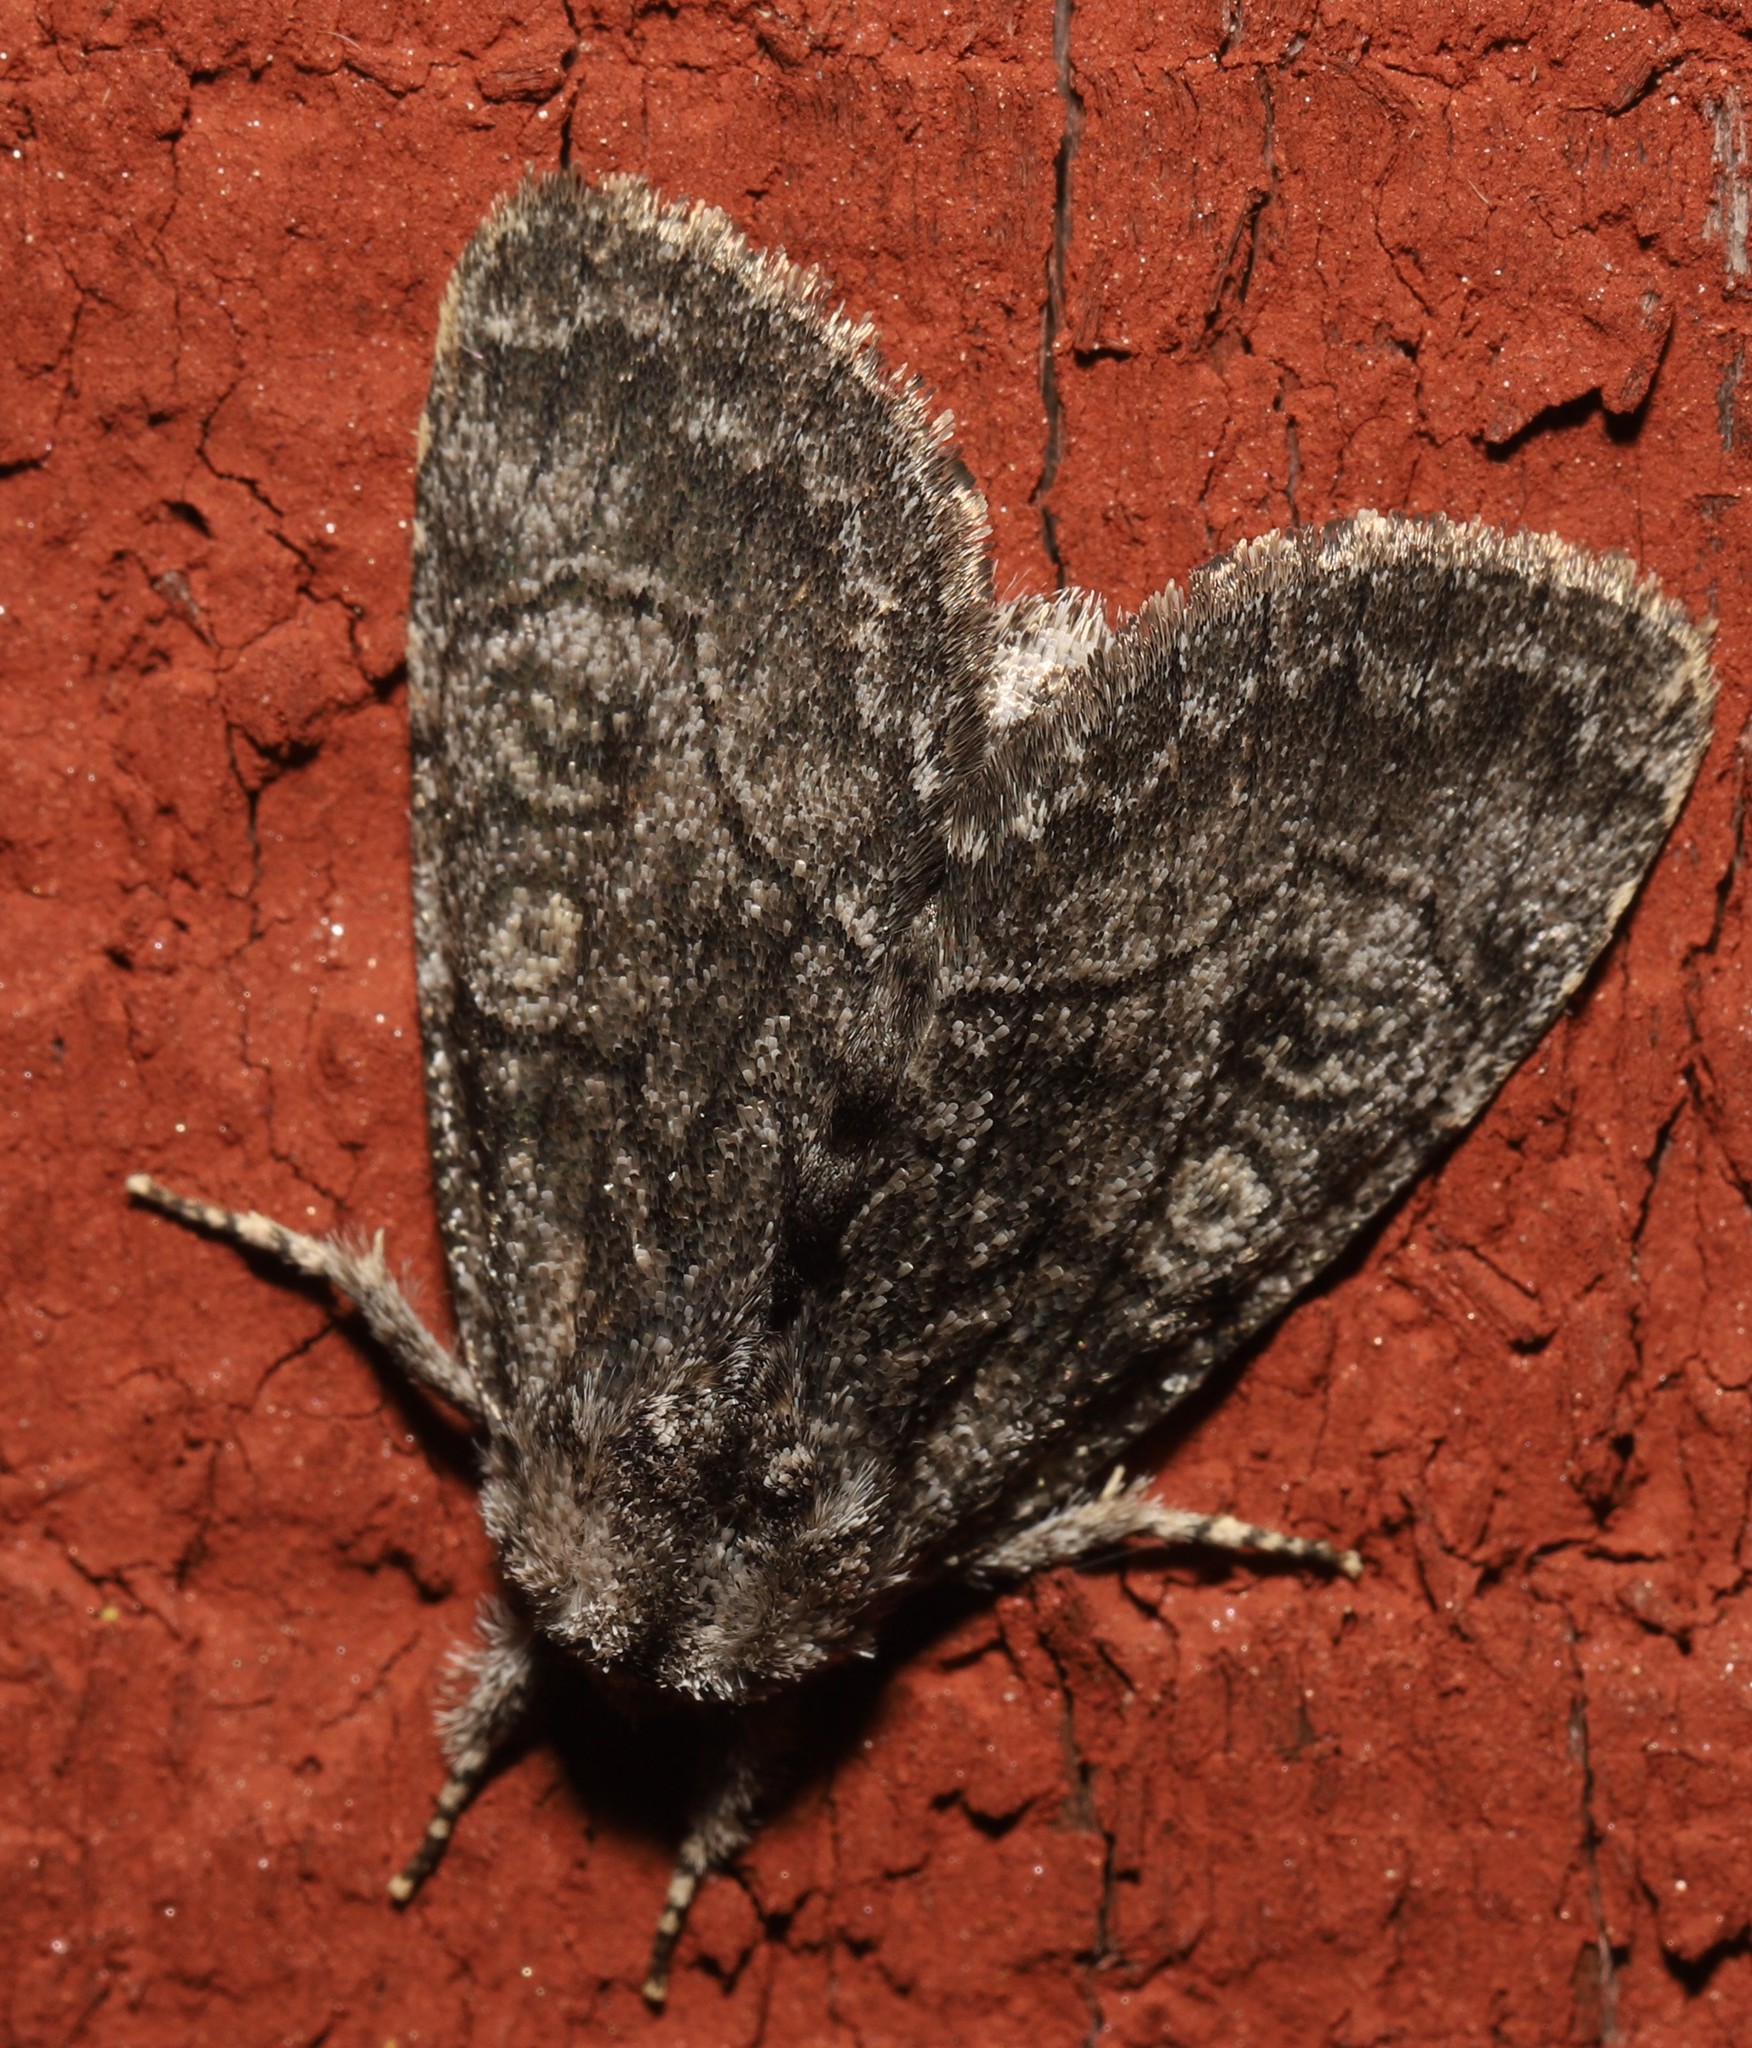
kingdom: Animalia
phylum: Arthropoda
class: Insecta
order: Lepidoptera
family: Noctuidae
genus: Raphia
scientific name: Raphia frater
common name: Brother
